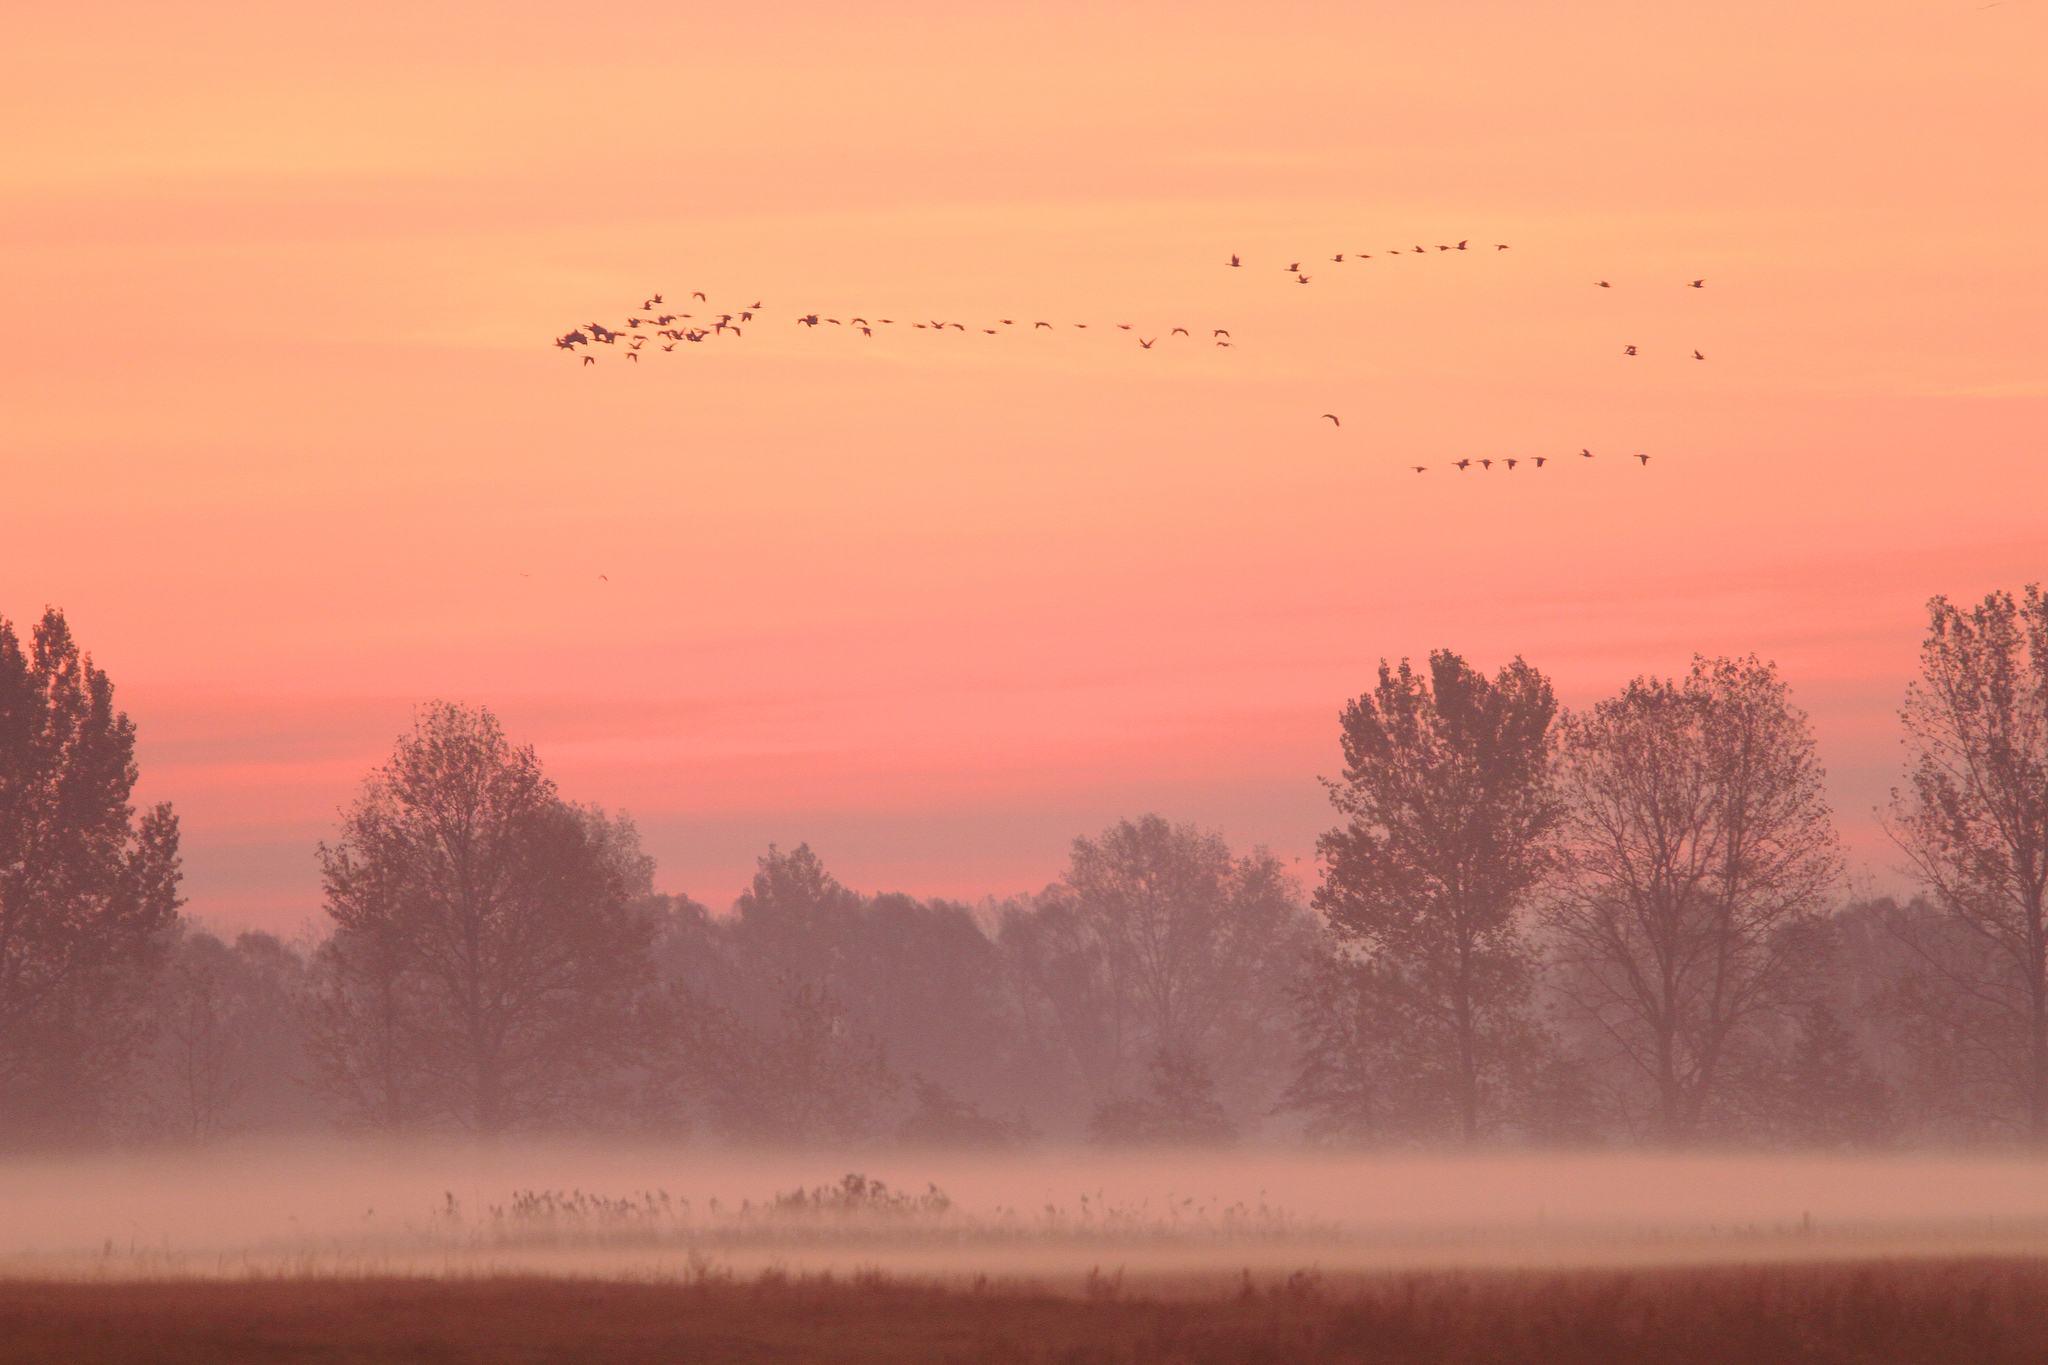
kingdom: Animalia
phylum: Chordata
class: Aves
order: Gruiformes
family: Gruidae
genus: Grus
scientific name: Grus grus
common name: Common crane
